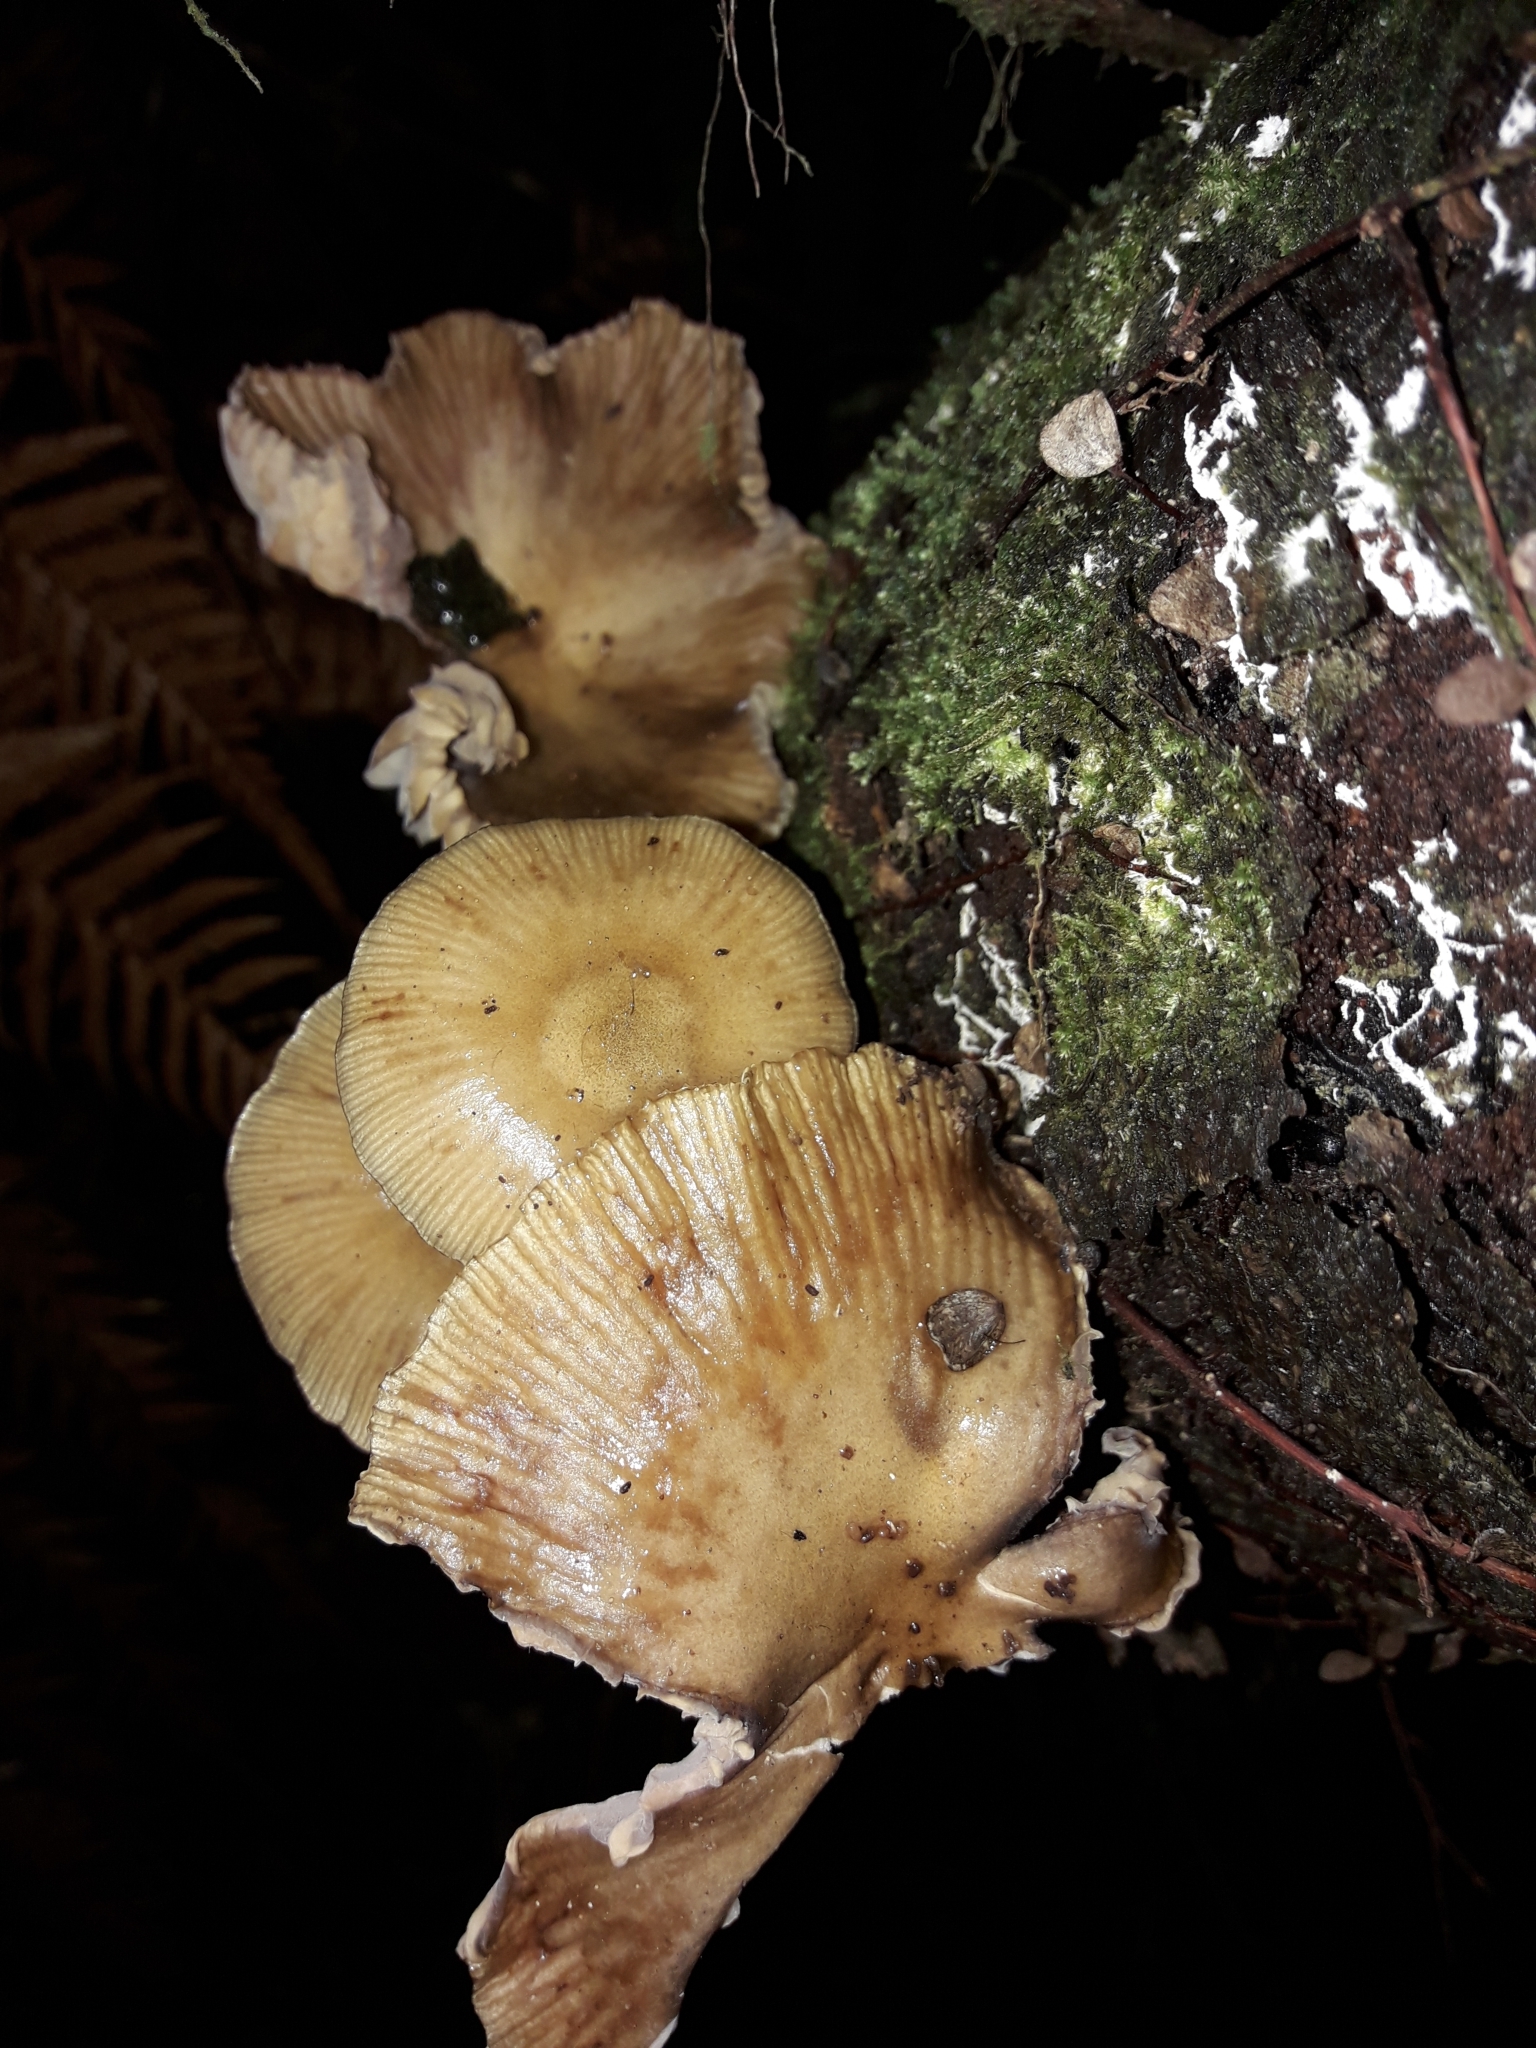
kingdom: Fungi
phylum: Basidiomycota
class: Agaricomycetes
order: Agaricales
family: Physalacriaceae
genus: Armillaria
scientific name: Armillaria novae-zelandiae
